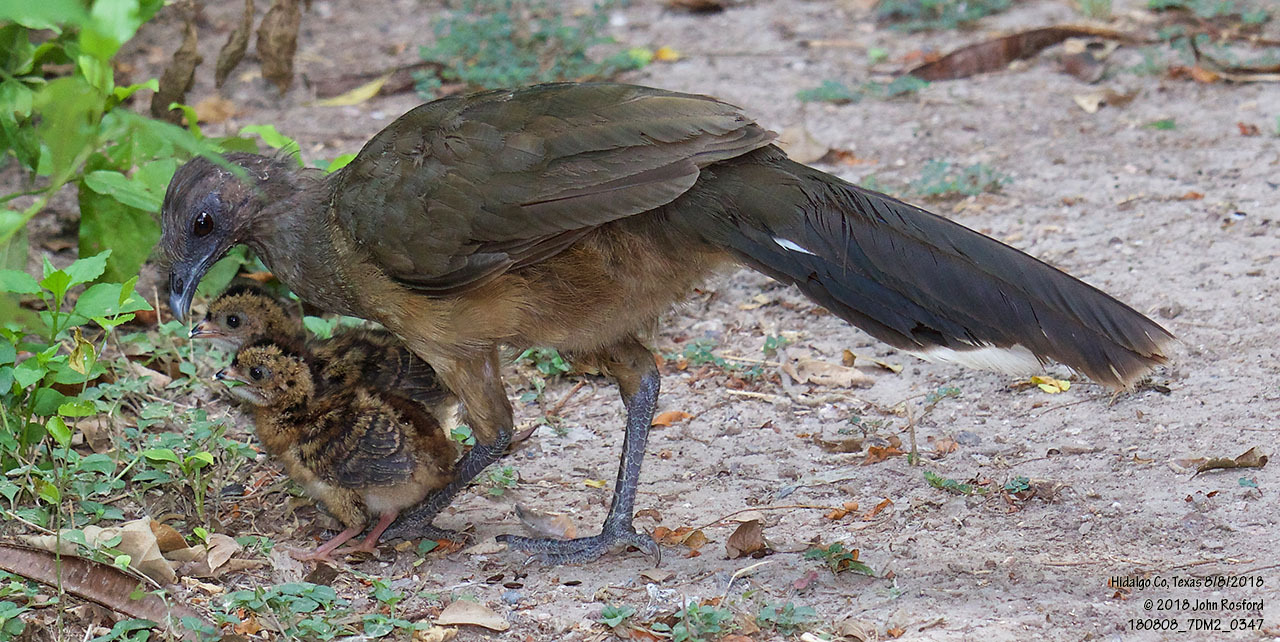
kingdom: Animalia
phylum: Chordata
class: Aves
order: Galliformes
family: Cracidae
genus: Ortalis
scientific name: Ortalis vetula
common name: Plain chachalaca
